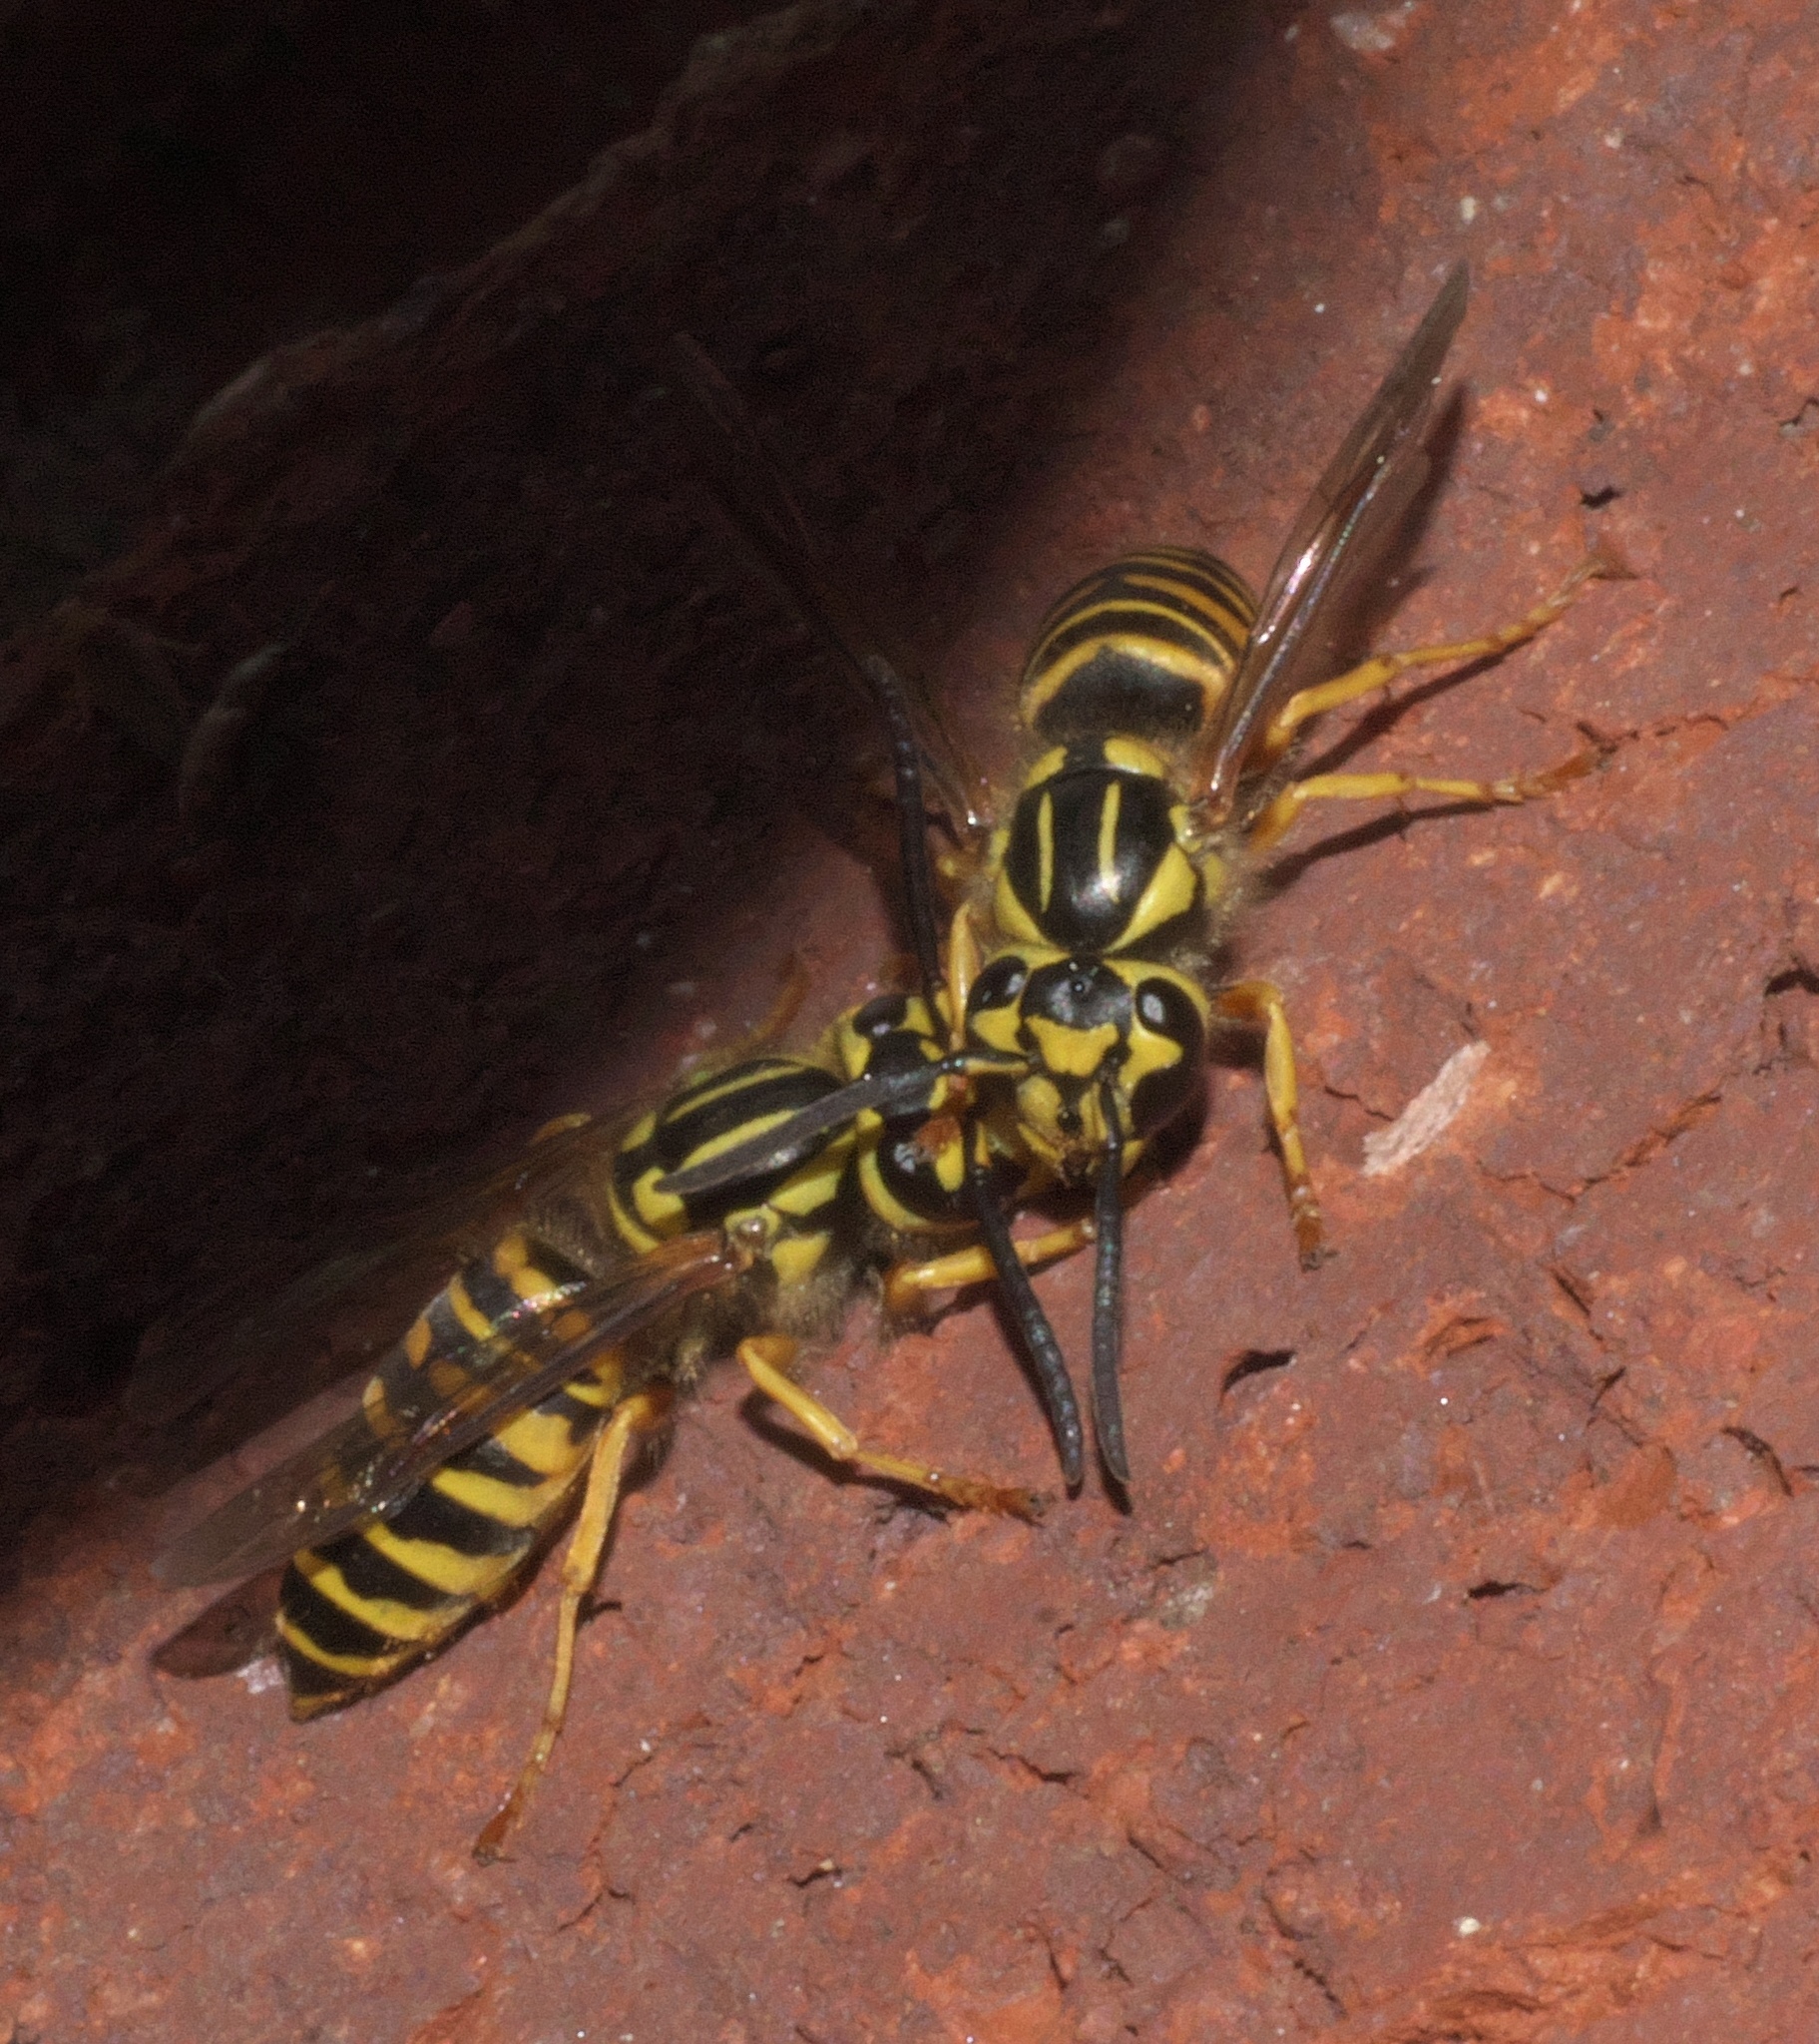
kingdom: Animalia
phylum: Arthropoda
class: Insecta
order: Hymenoptera
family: Vespidae
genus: Vespula
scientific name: Vespula squamosa
